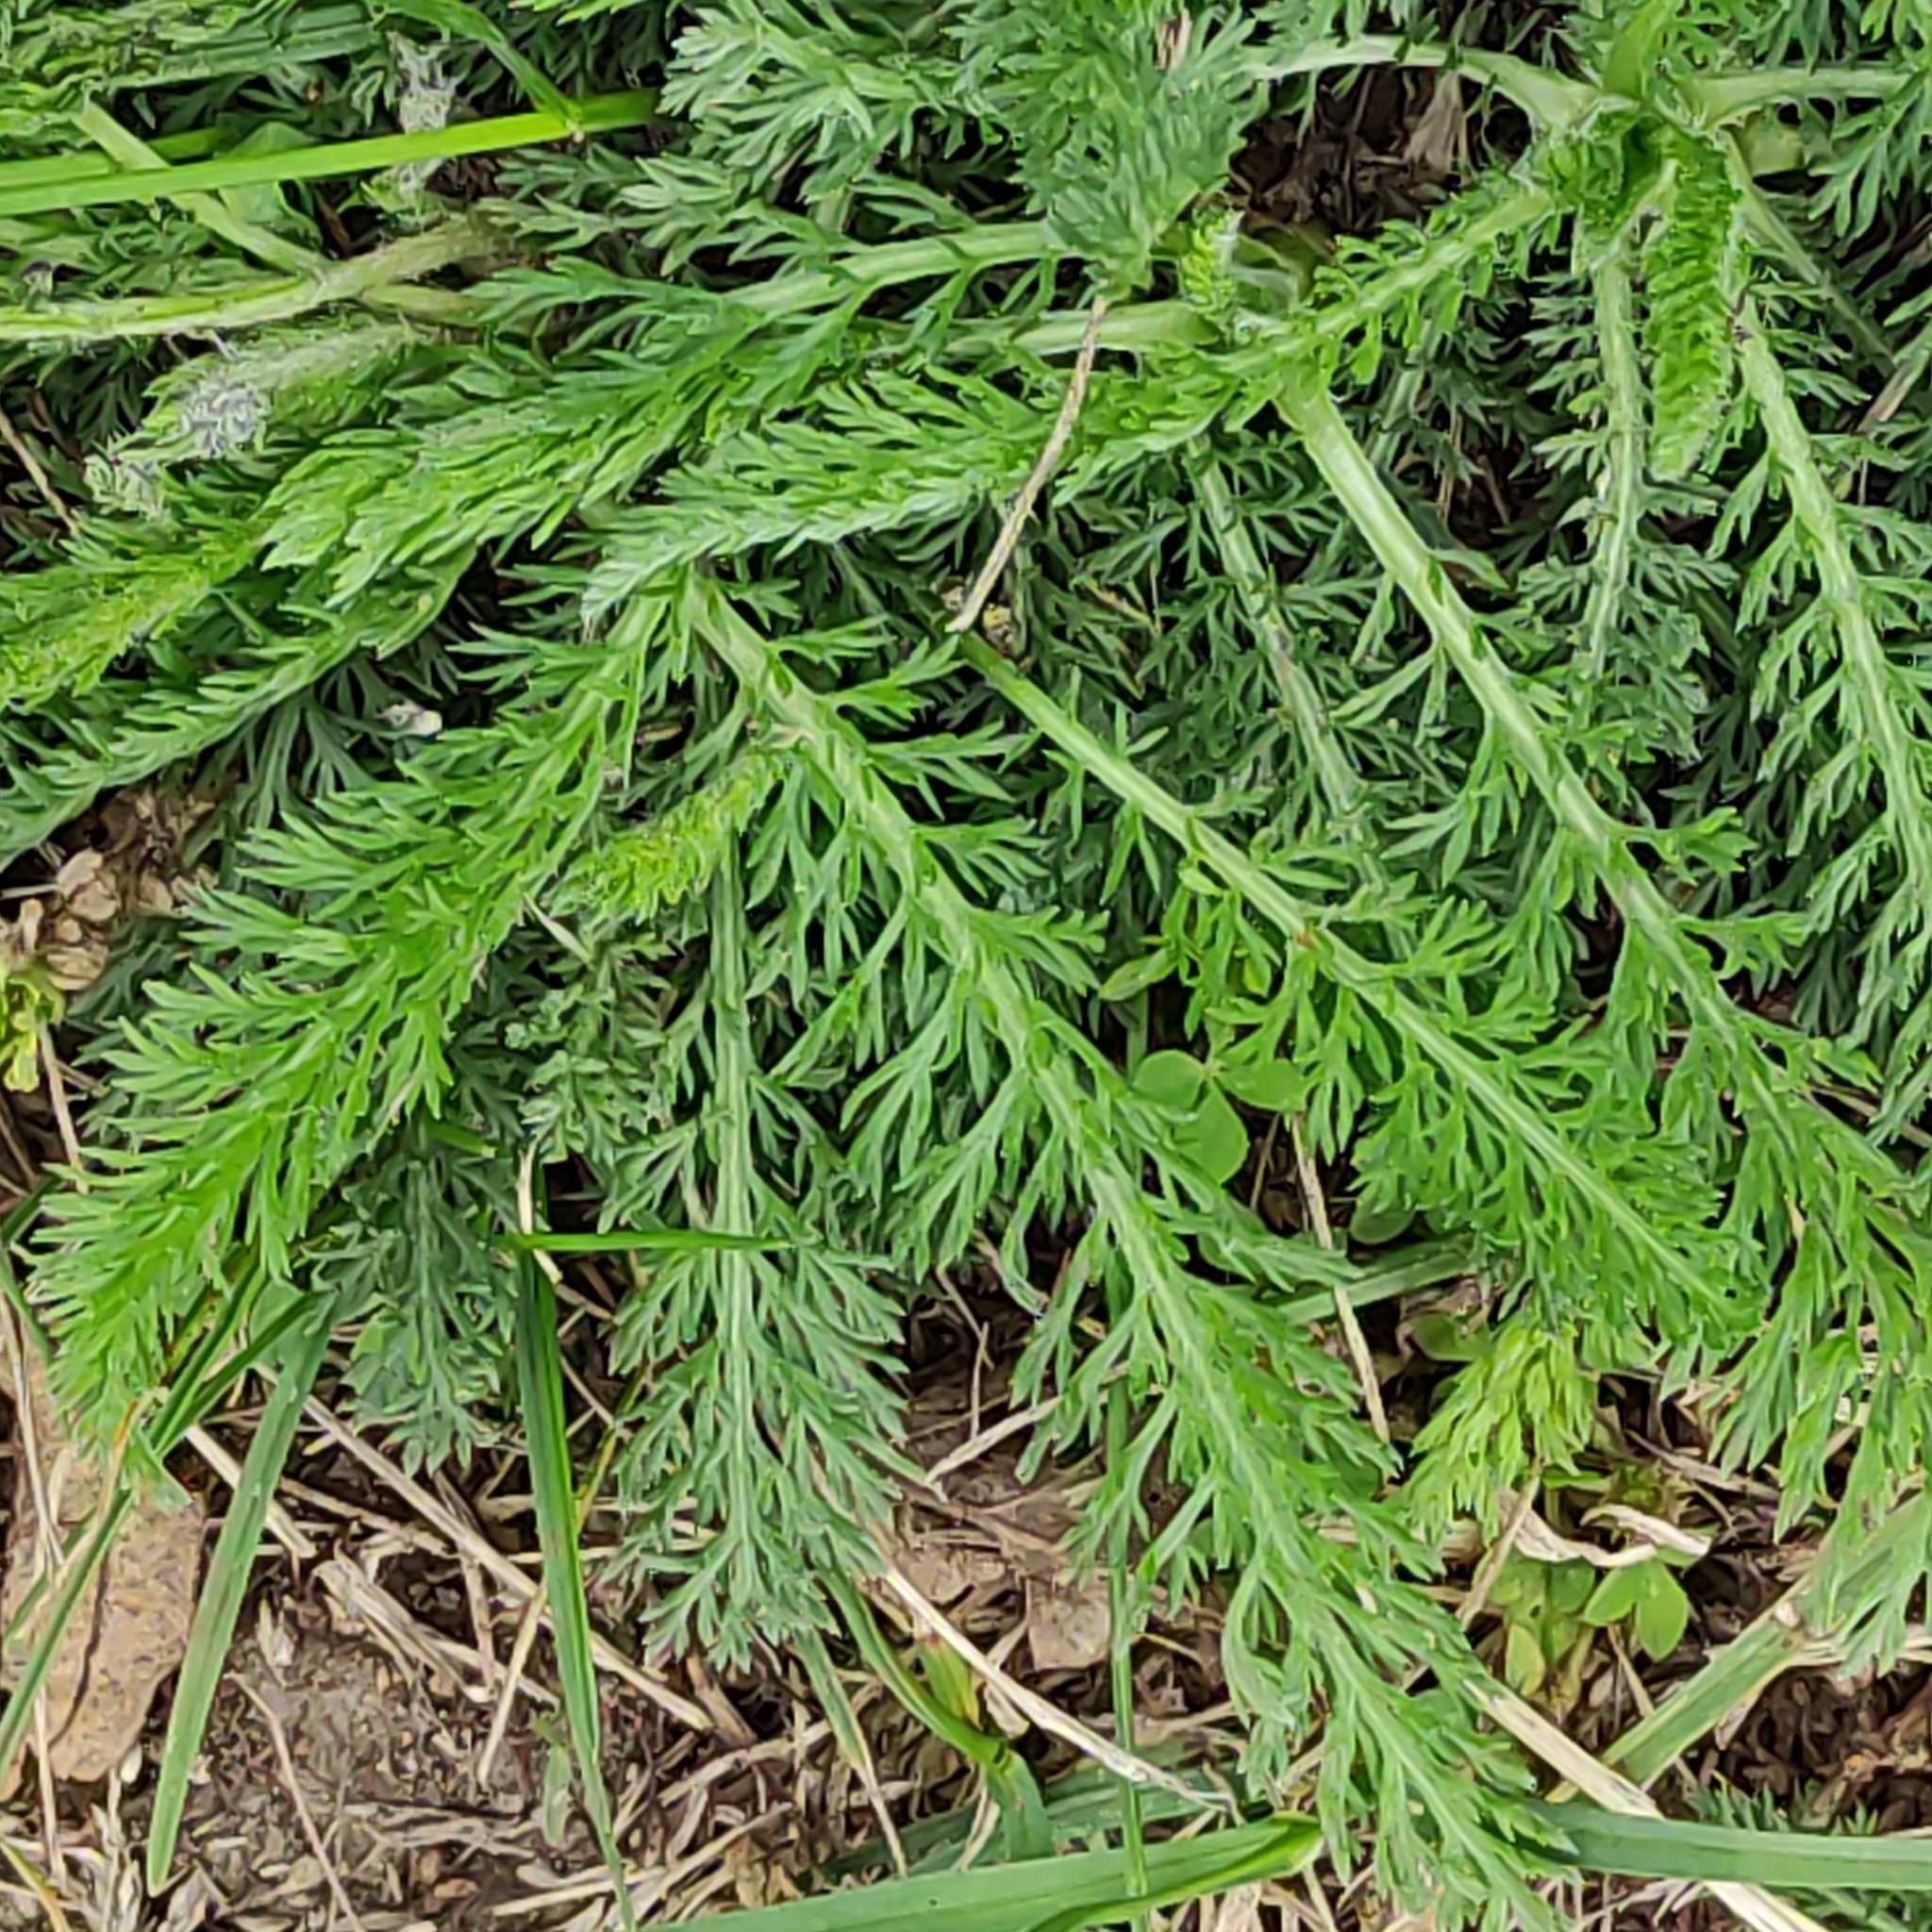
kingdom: Plantae
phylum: Tracheophyta
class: Magnoliopsida
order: Asterales
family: Asteraceae
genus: Achillea
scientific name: Achillea millefolium
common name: Yarrow
